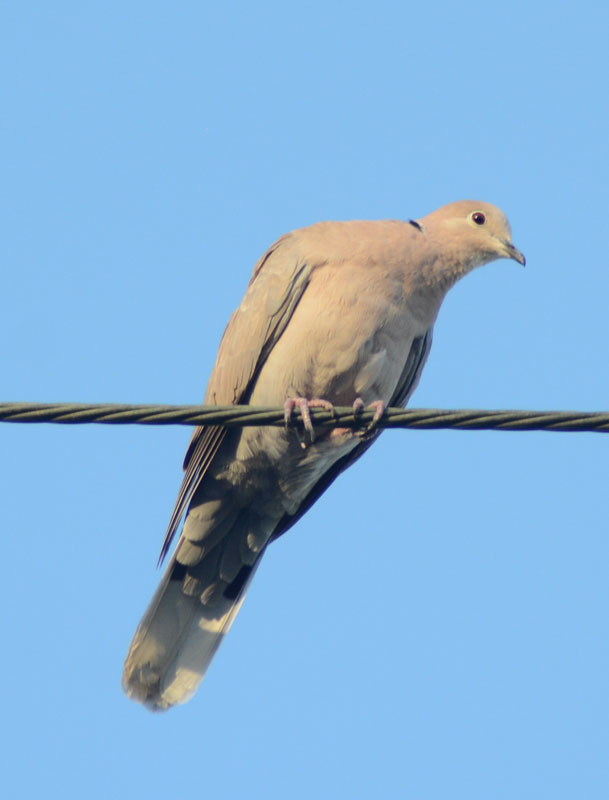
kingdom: Animalia
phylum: Chordata
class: Aves
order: Columbiformes
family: Columbidae
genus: Streptopelia
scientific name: Streptopelia decaocto
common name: Eurasian collared dove
